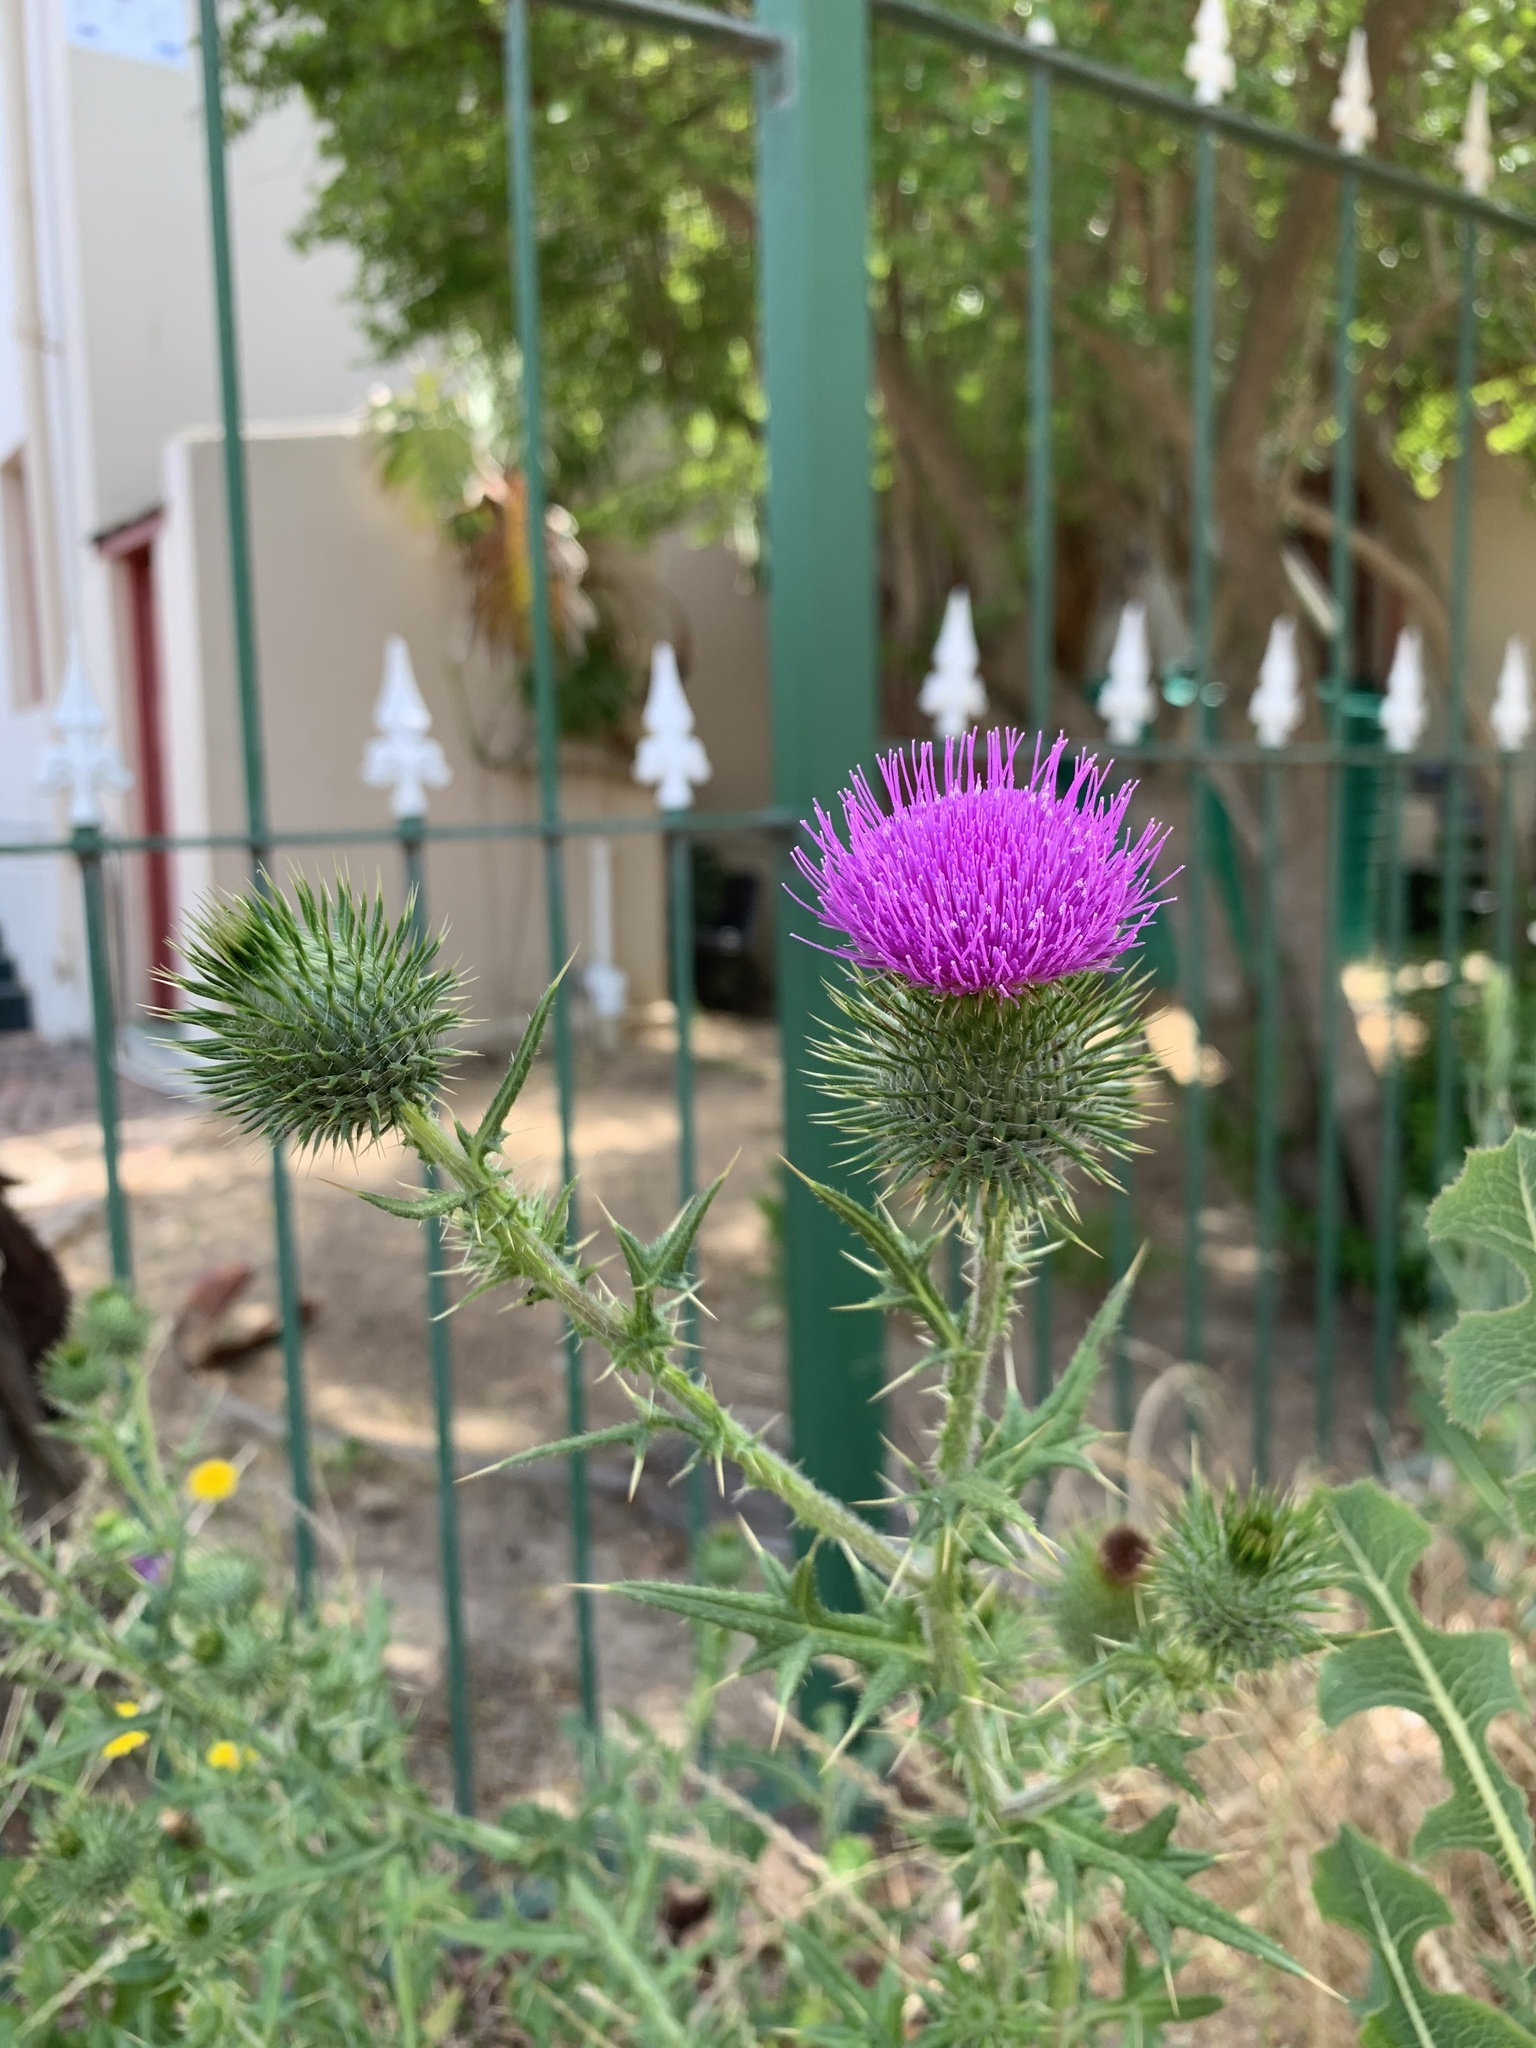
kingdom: Plantae
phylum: Tracheophyta
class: Magnoliopsida
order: Asterales
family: Asteraceae
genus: Cirsium
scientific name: Cirsium vulgare
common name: Bull thistle
